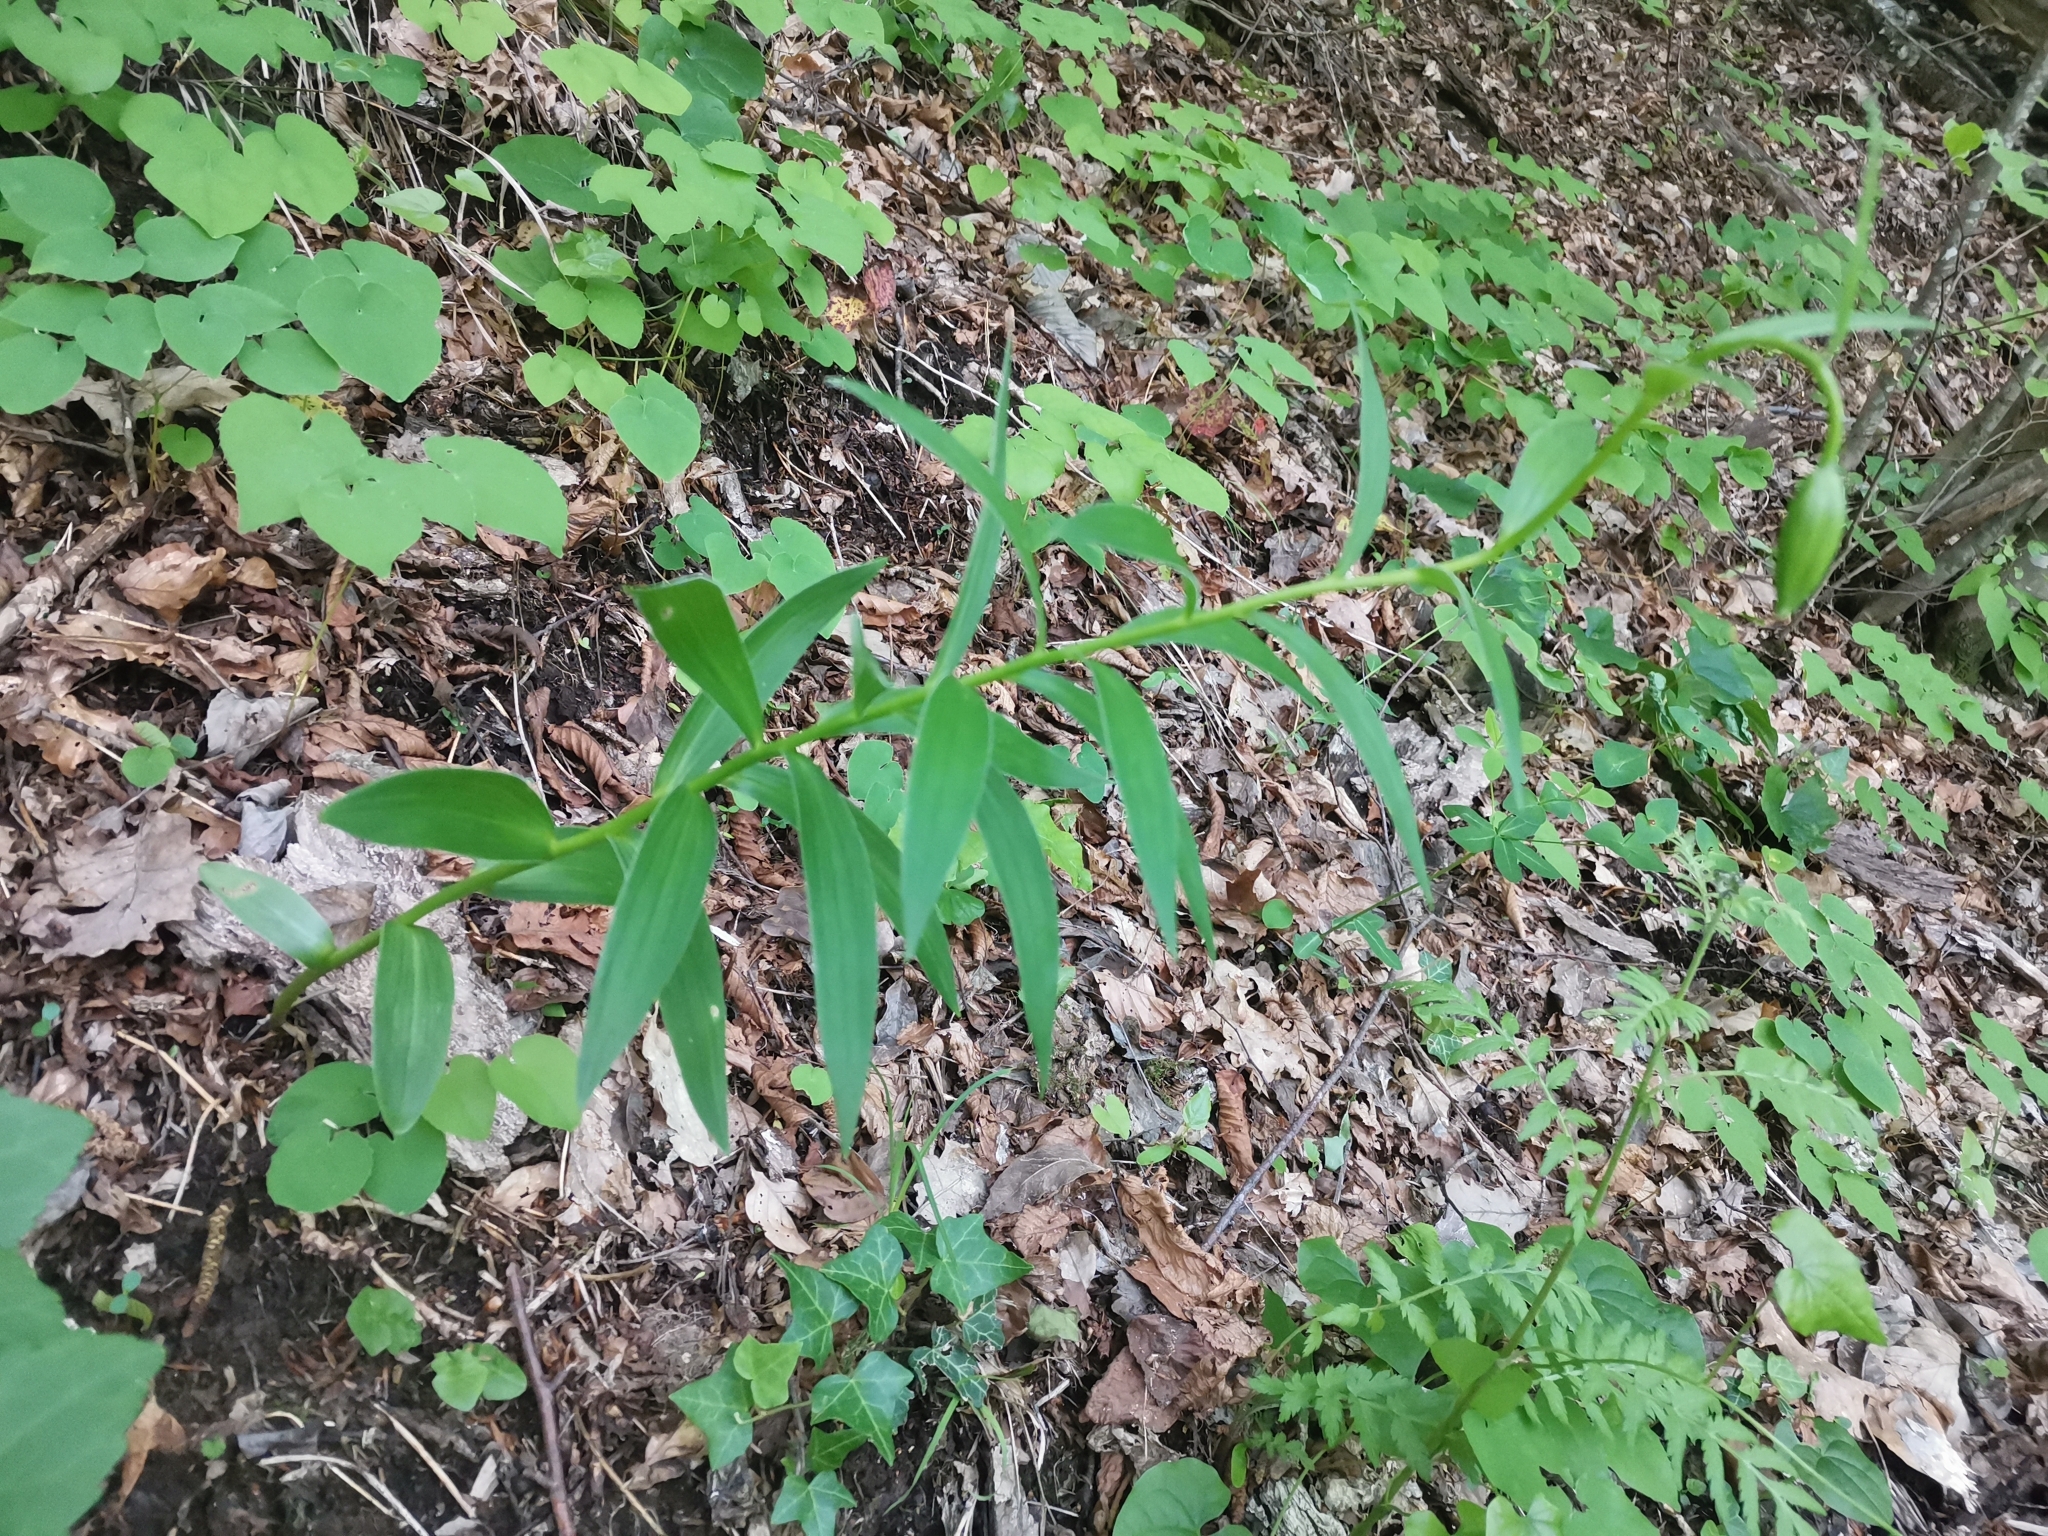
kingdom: Plantae
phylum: Tracheophyta
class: Liliopsida
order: Liliales
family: Liliaceae
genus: Lilium
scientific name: Lilium carniolicum
